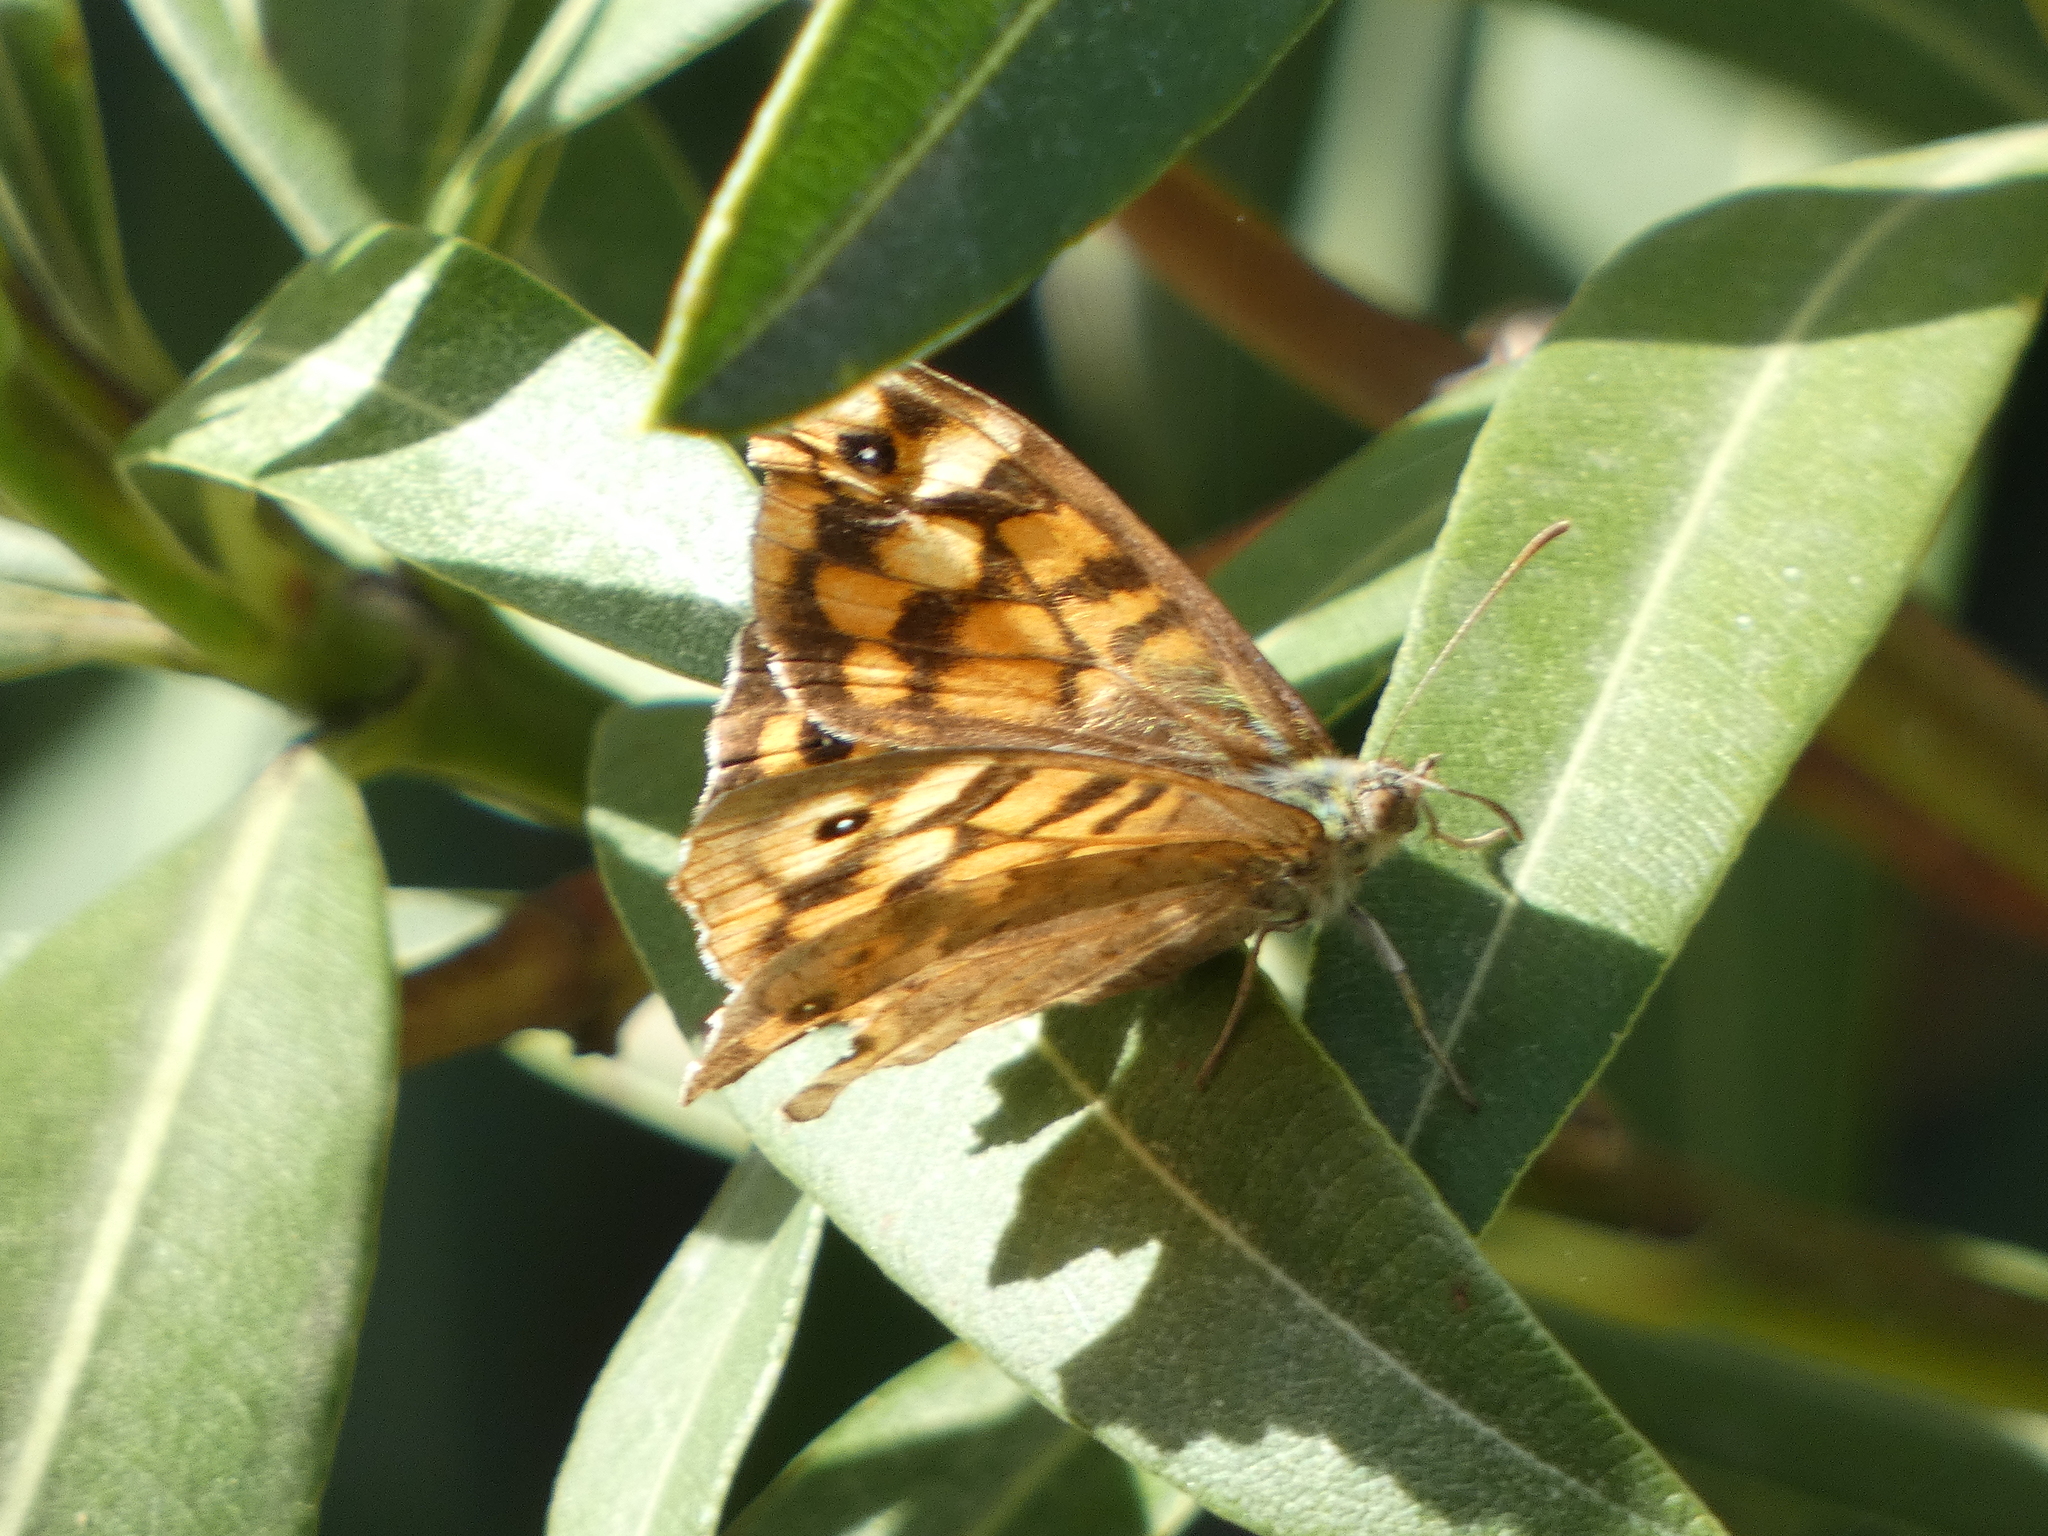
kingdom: Animalia
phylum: Arthropoda
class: Insecta
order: Lepidoptera
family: Nymphalidae
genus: Pararge
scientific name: Pararge aegeria
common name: Speckled wood
